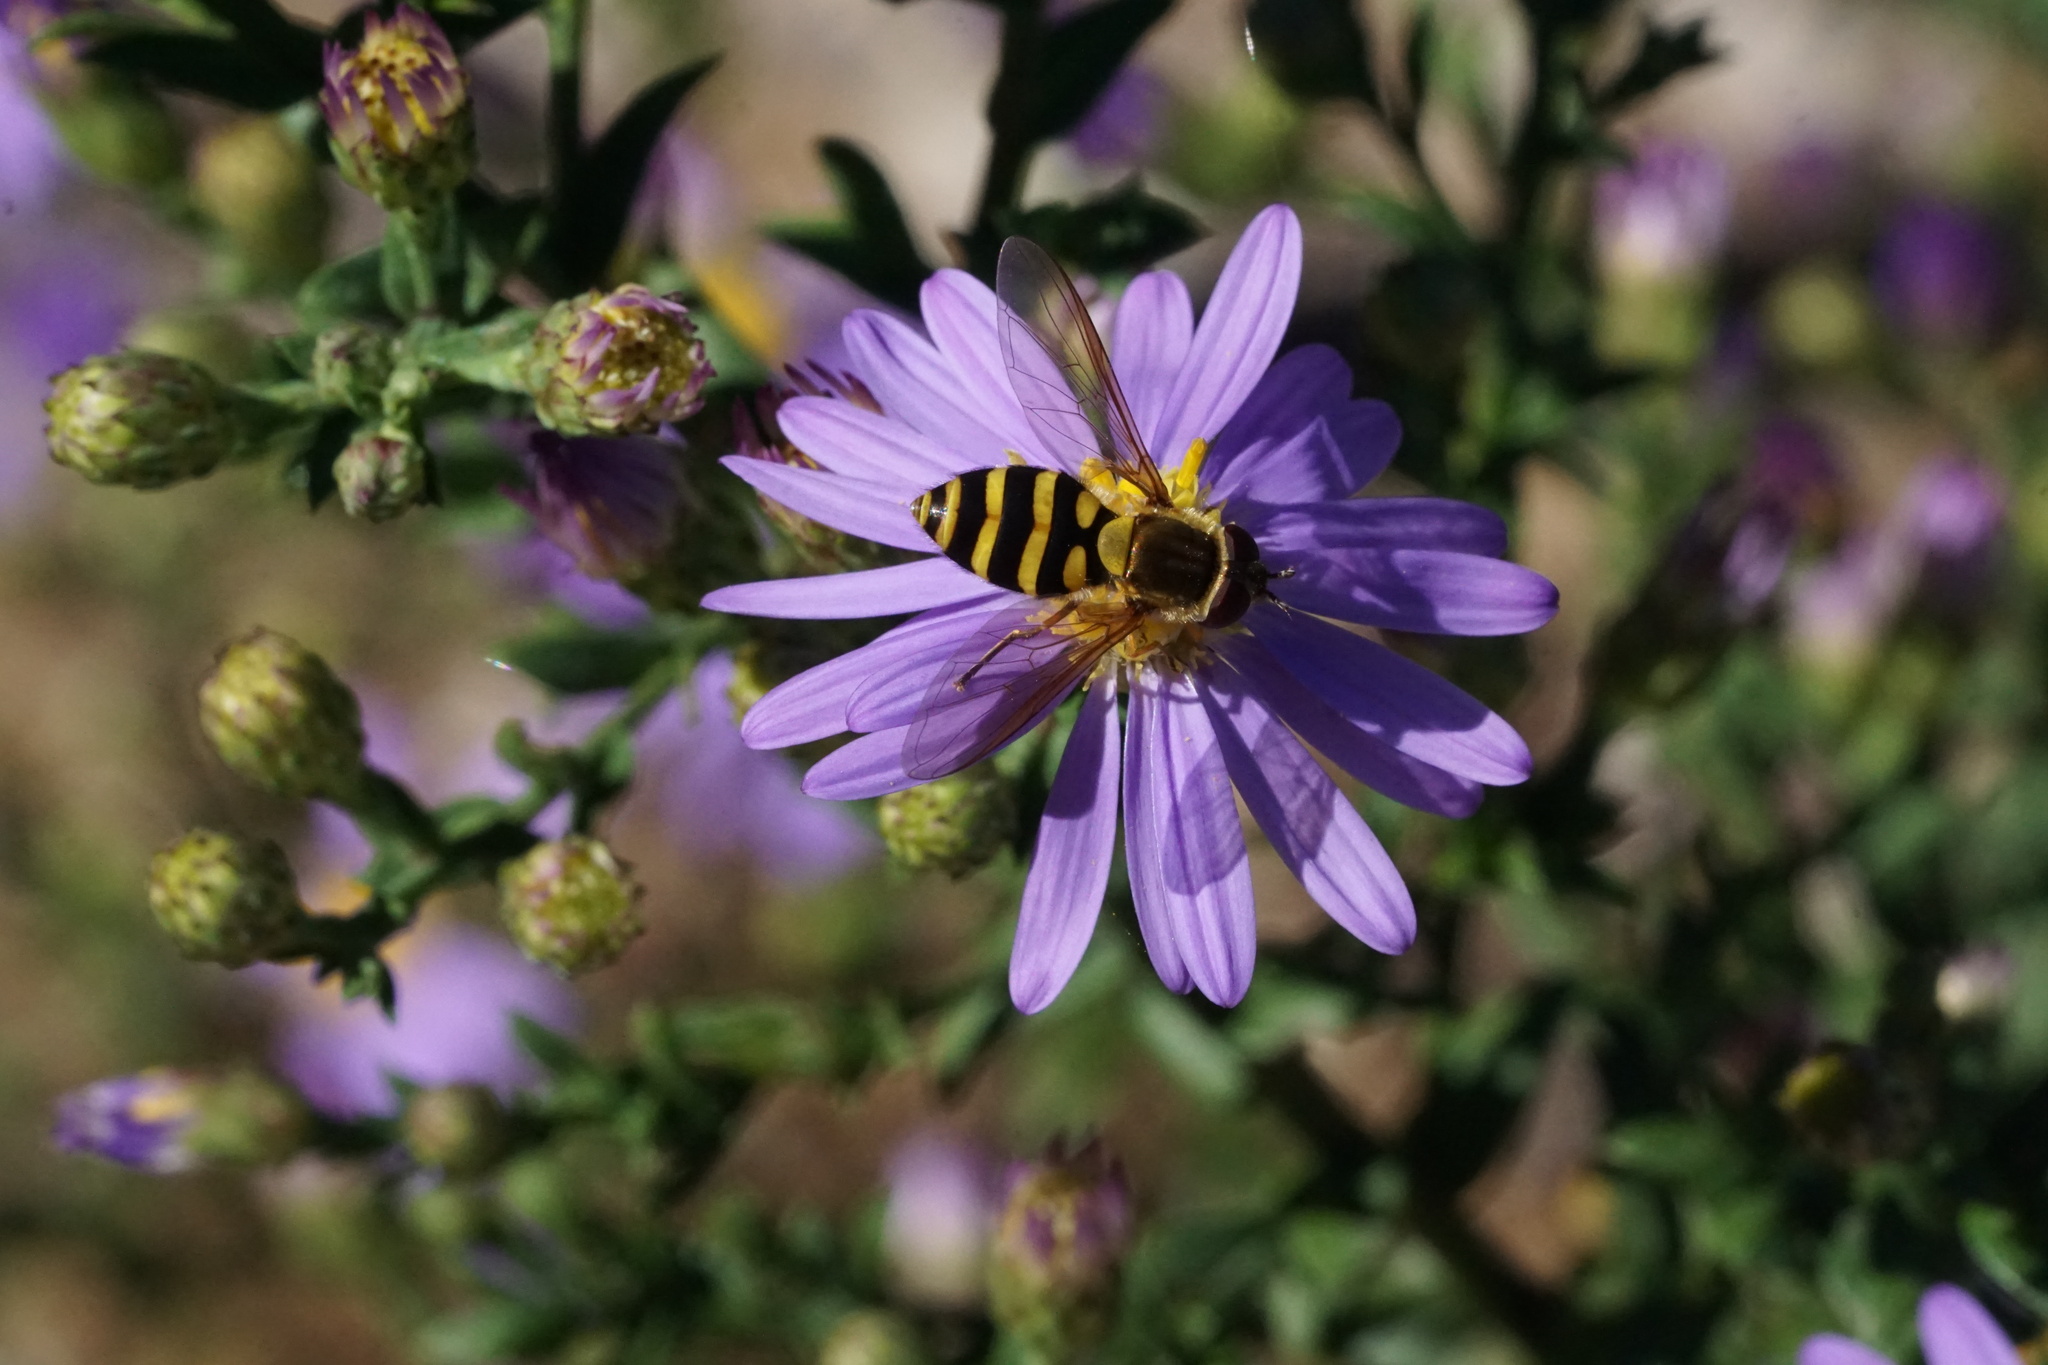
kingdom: Animalia
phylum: Arthropoda
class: Insecta
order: Diptera
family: Syrphidae
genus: Syrphus
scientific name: Syrphus
